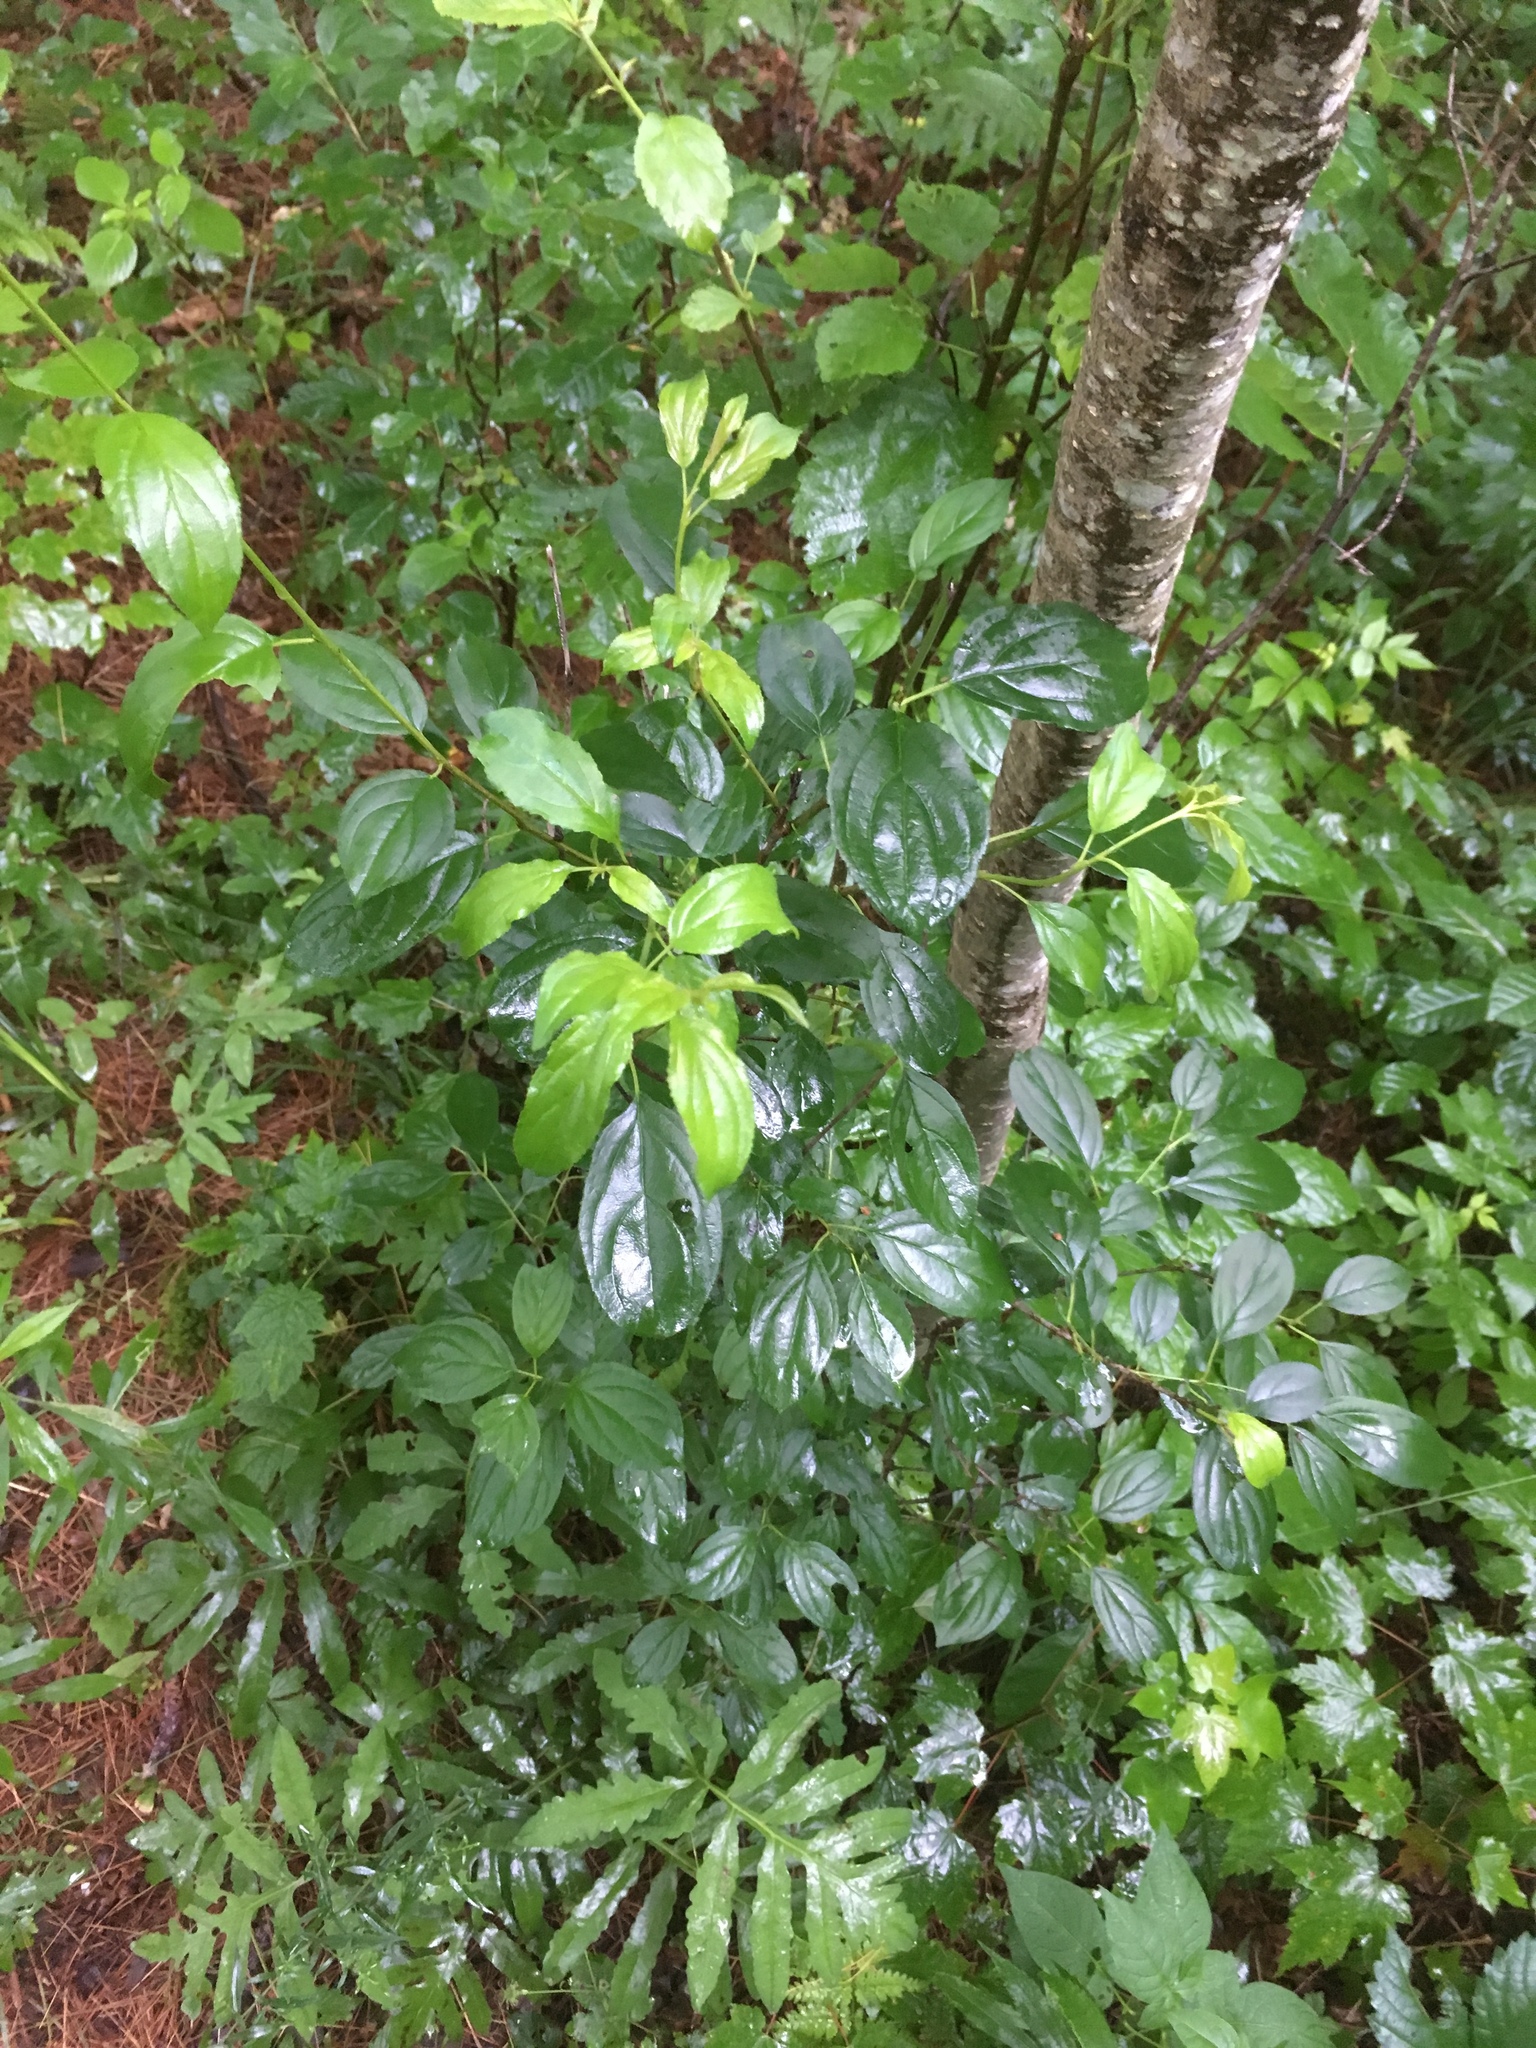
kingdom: Plantae
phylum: Tracheophyta
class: Magnoliopsida
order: Rosales
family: Rhamnaceae
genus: Rhamnus
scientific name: Rhamnus cathartica
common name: Common buckthorn
